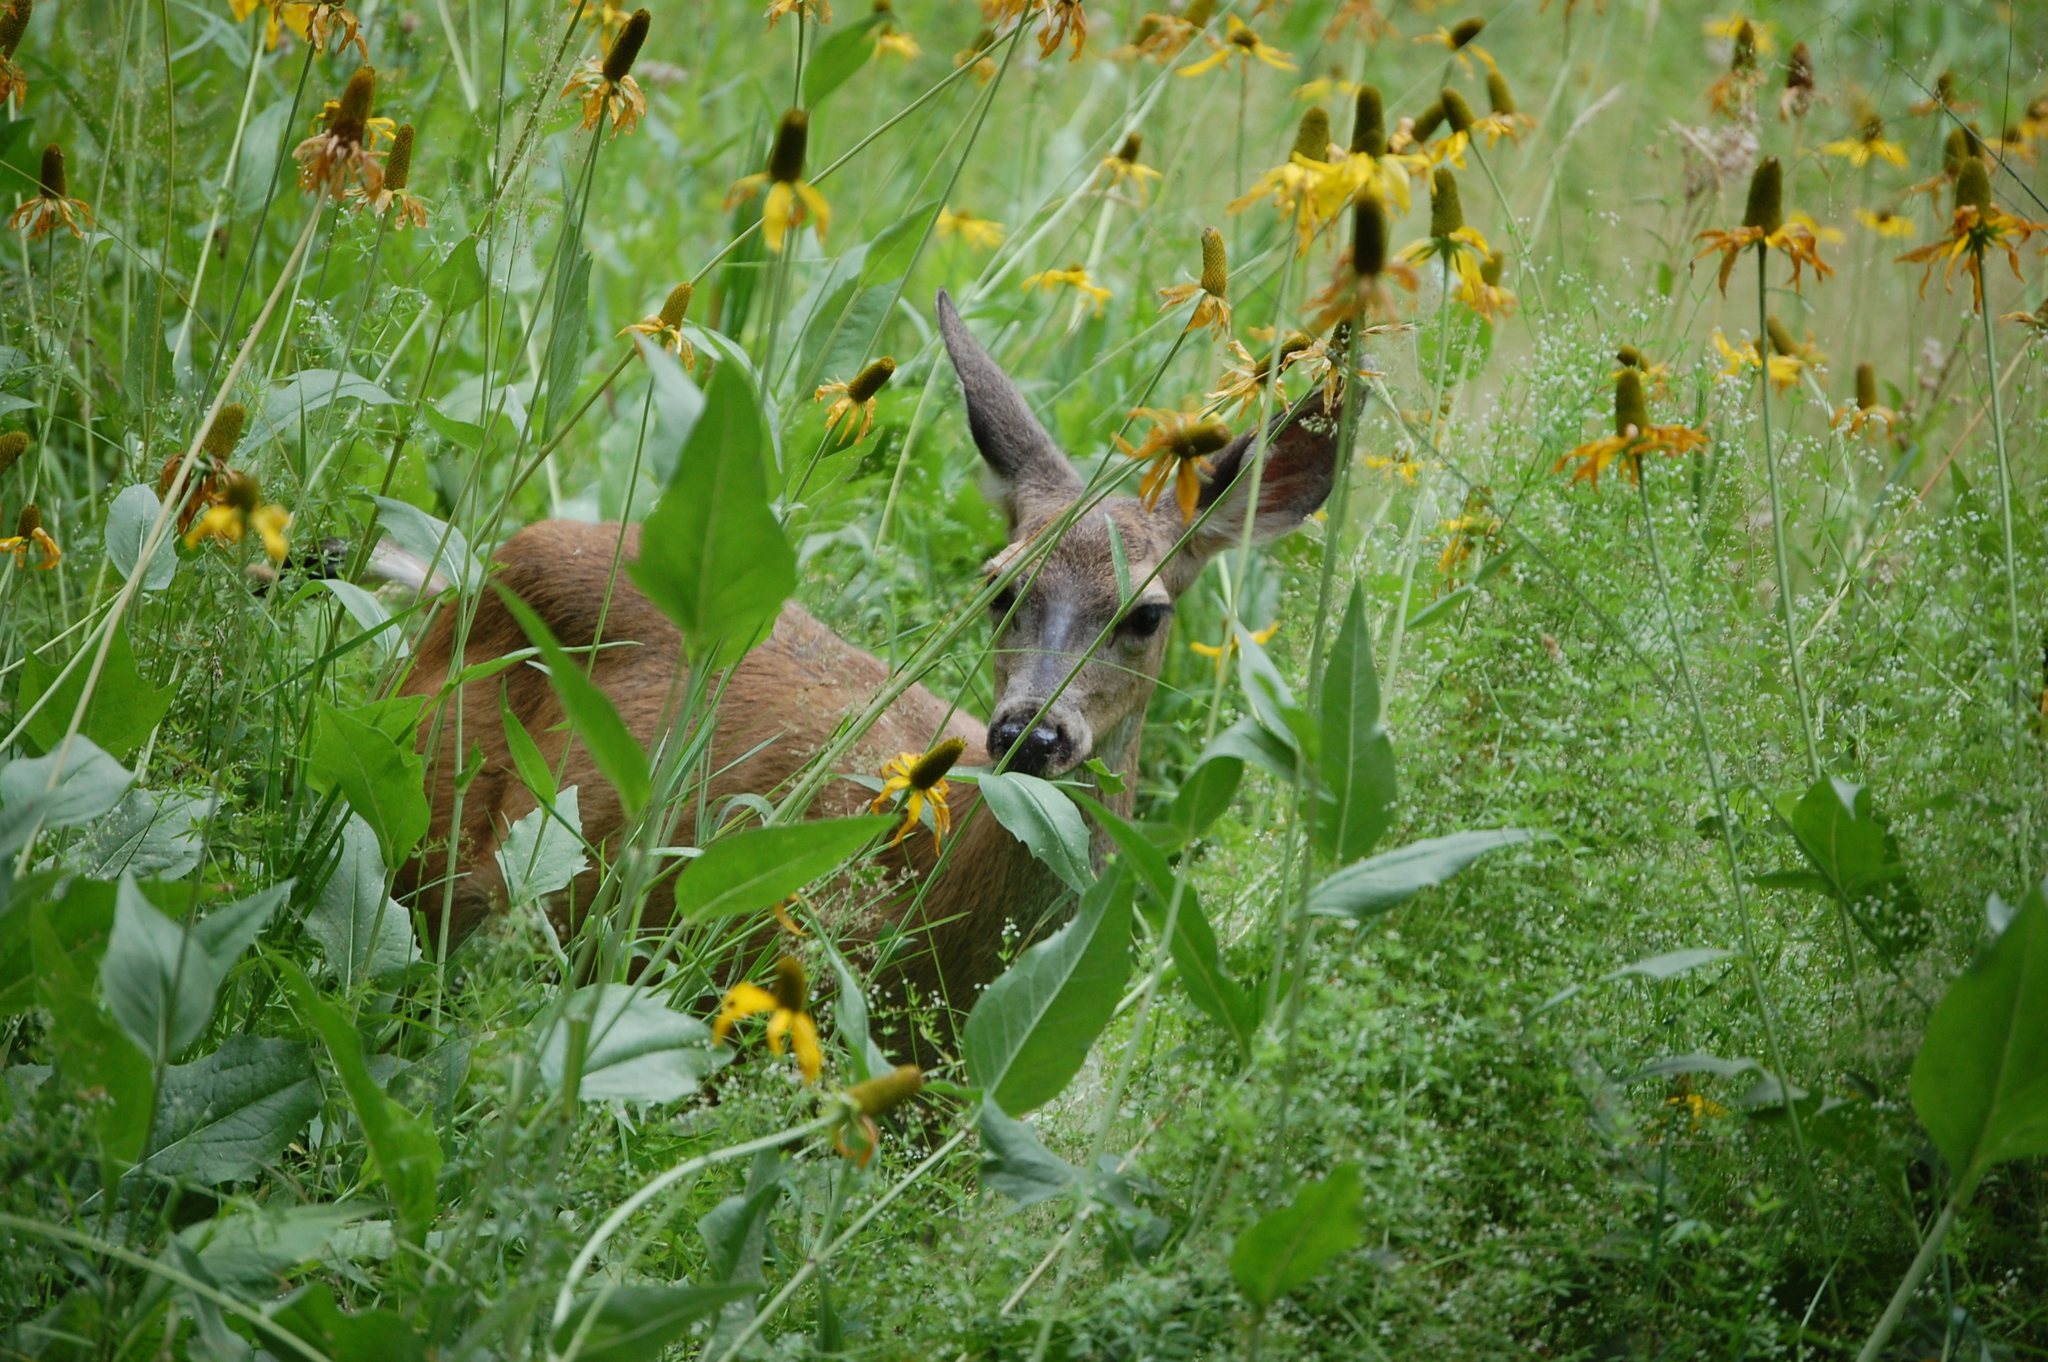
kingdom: Animalia
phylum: Chordata
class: Mammalia
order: Artiodactyla
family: Cervidae
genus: Odocoileus
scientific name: Odocoileus hemionus
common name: Mule deer
